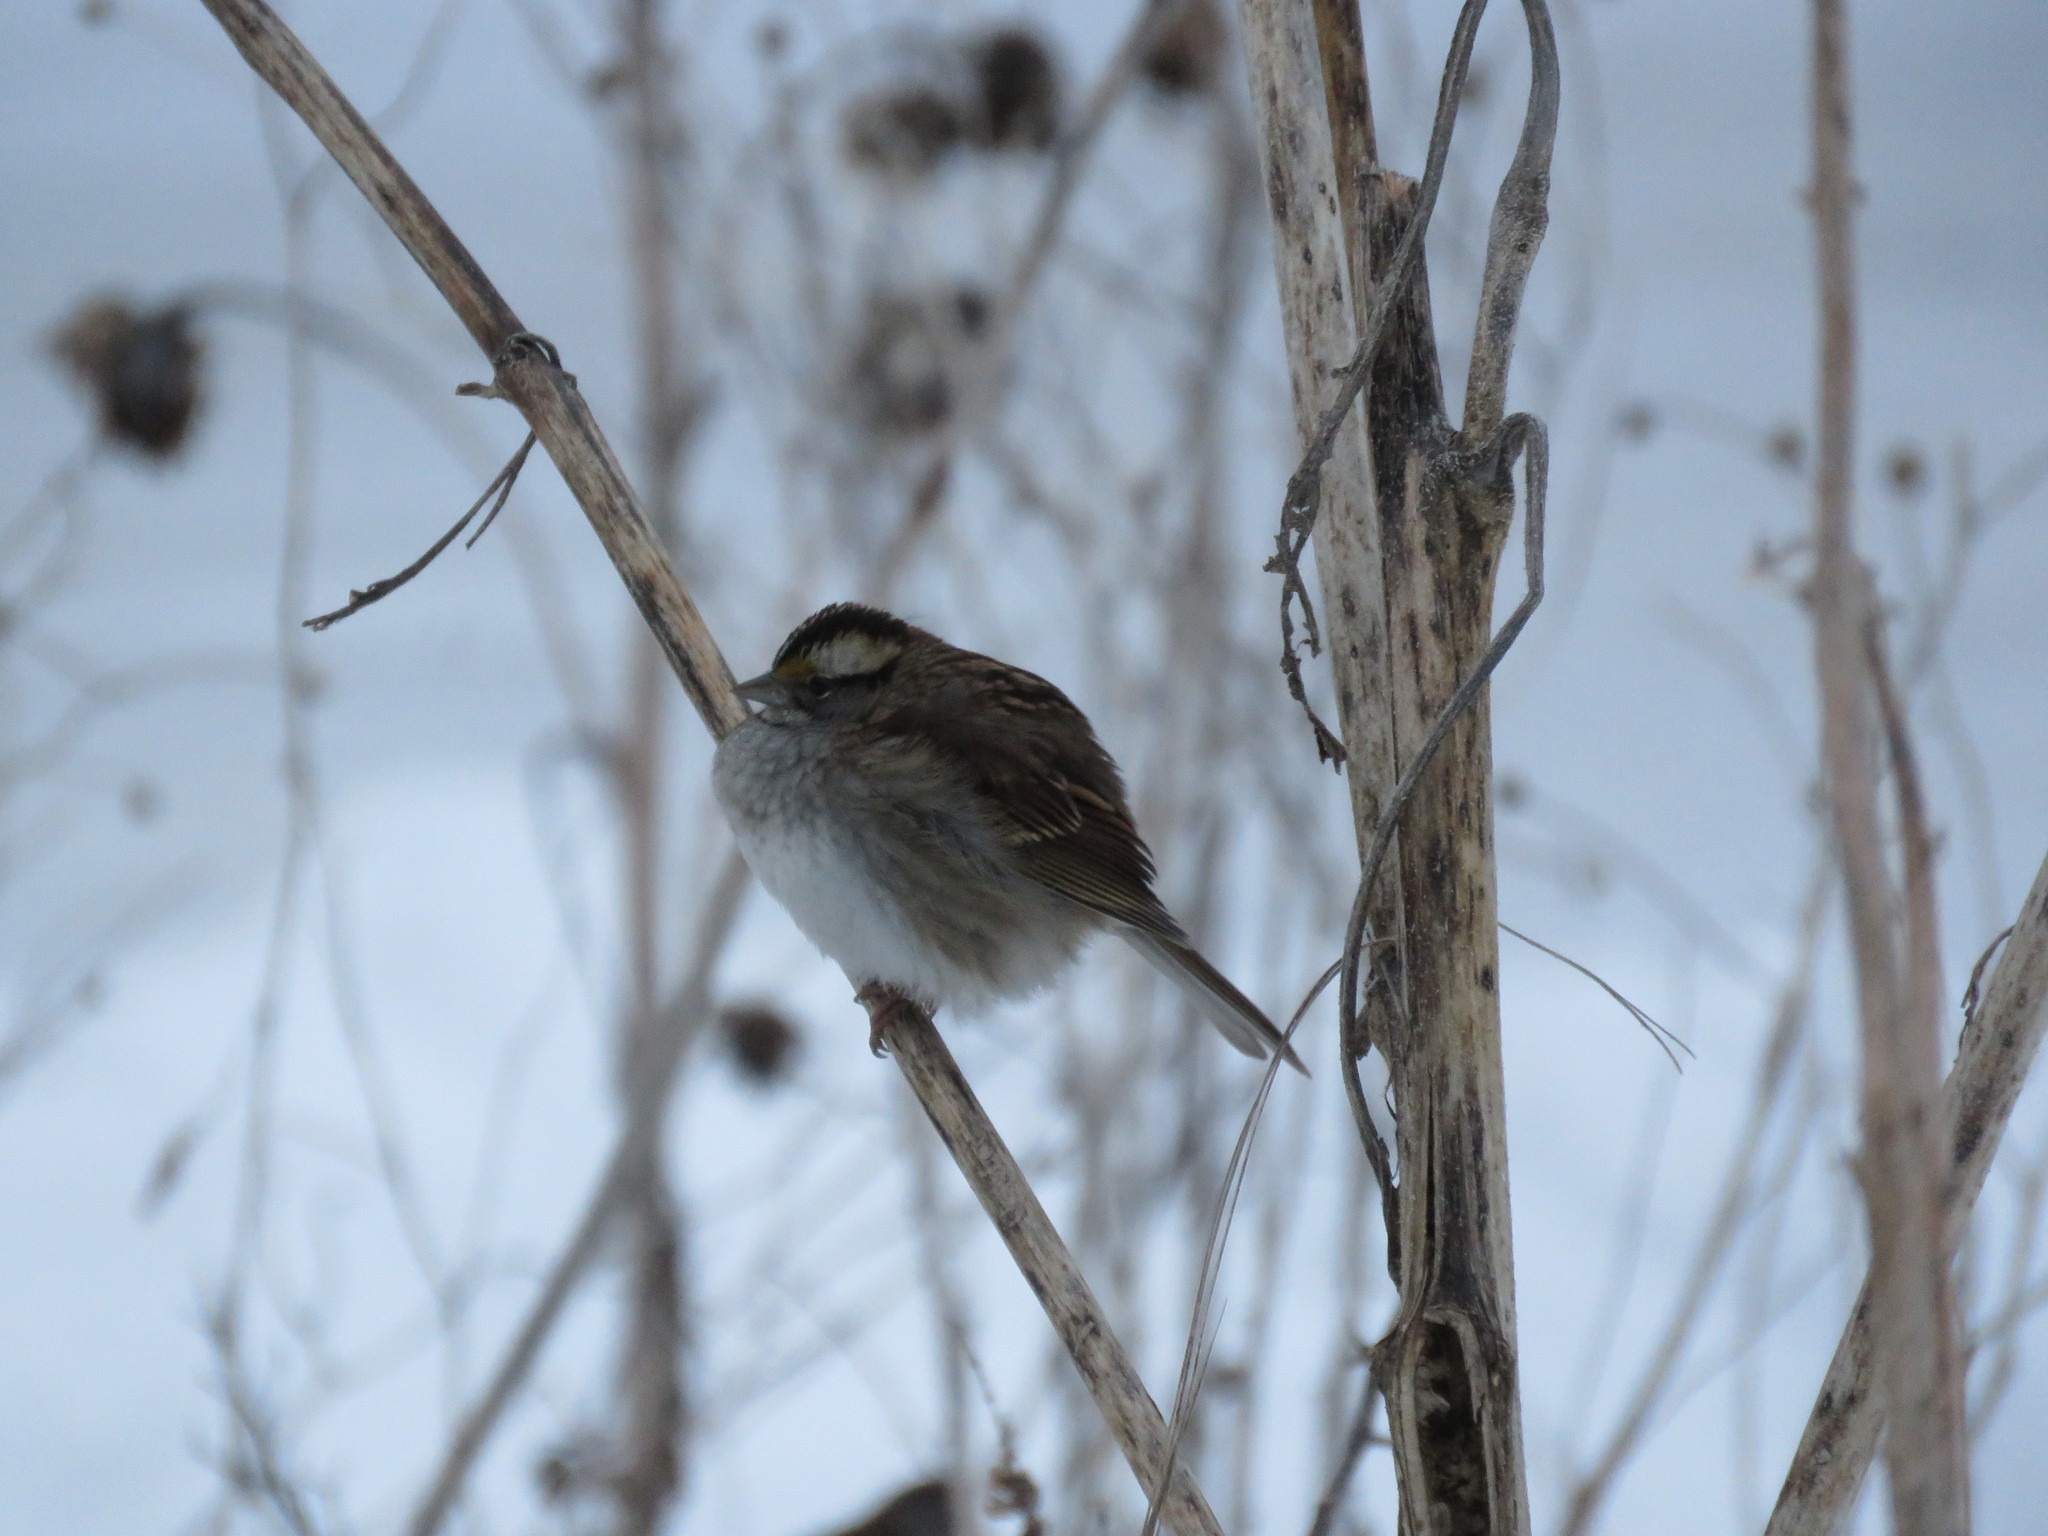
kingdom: Animalia
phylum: Chordata
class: Aves
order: Passeriformes
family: Passerellidae
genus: Zonotrichia
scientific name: Zonotrichia albicollis
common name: White-throated sparrow
